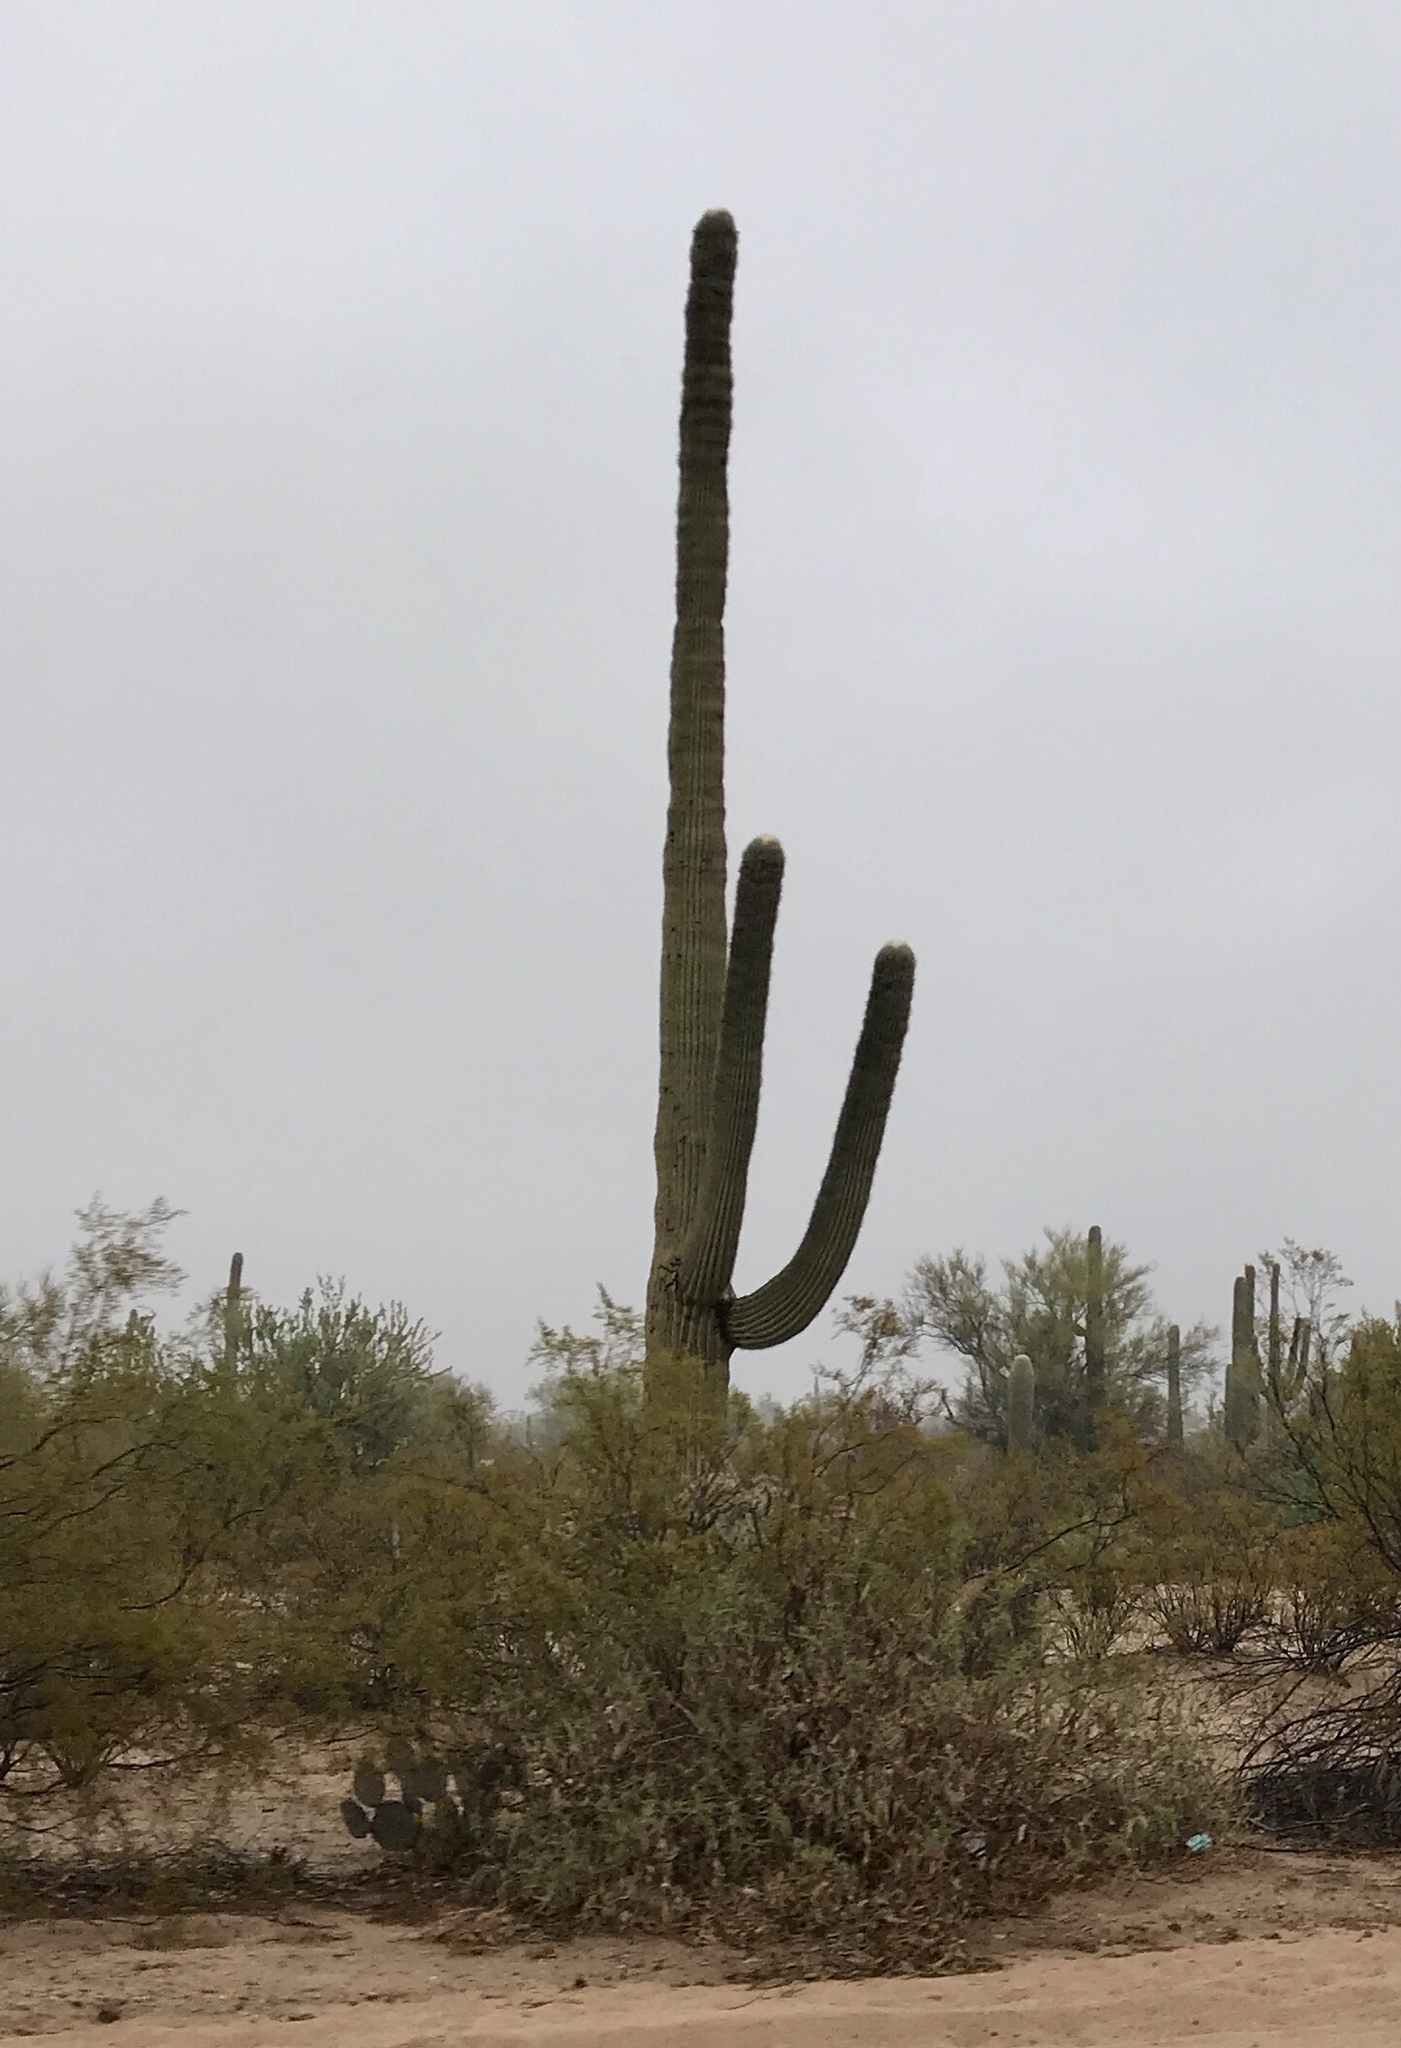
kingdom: Plantae
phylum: Tracheophyta
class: Magnoliopsida
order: Caryophyllales
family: Cactaceae
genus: Carnegiea
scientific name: Carnegiea gigantea
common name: Saguaro
